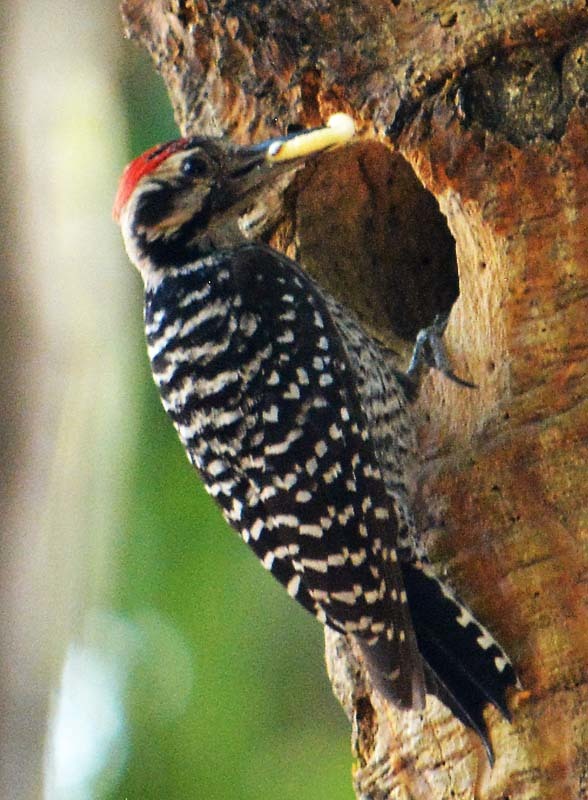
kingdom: Animalia
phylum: Chordata
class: Aves
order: Piciformes
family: Picidae
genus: Dryobates
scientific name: Dryobates scalaris
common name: Ladder-backed woodpecker
